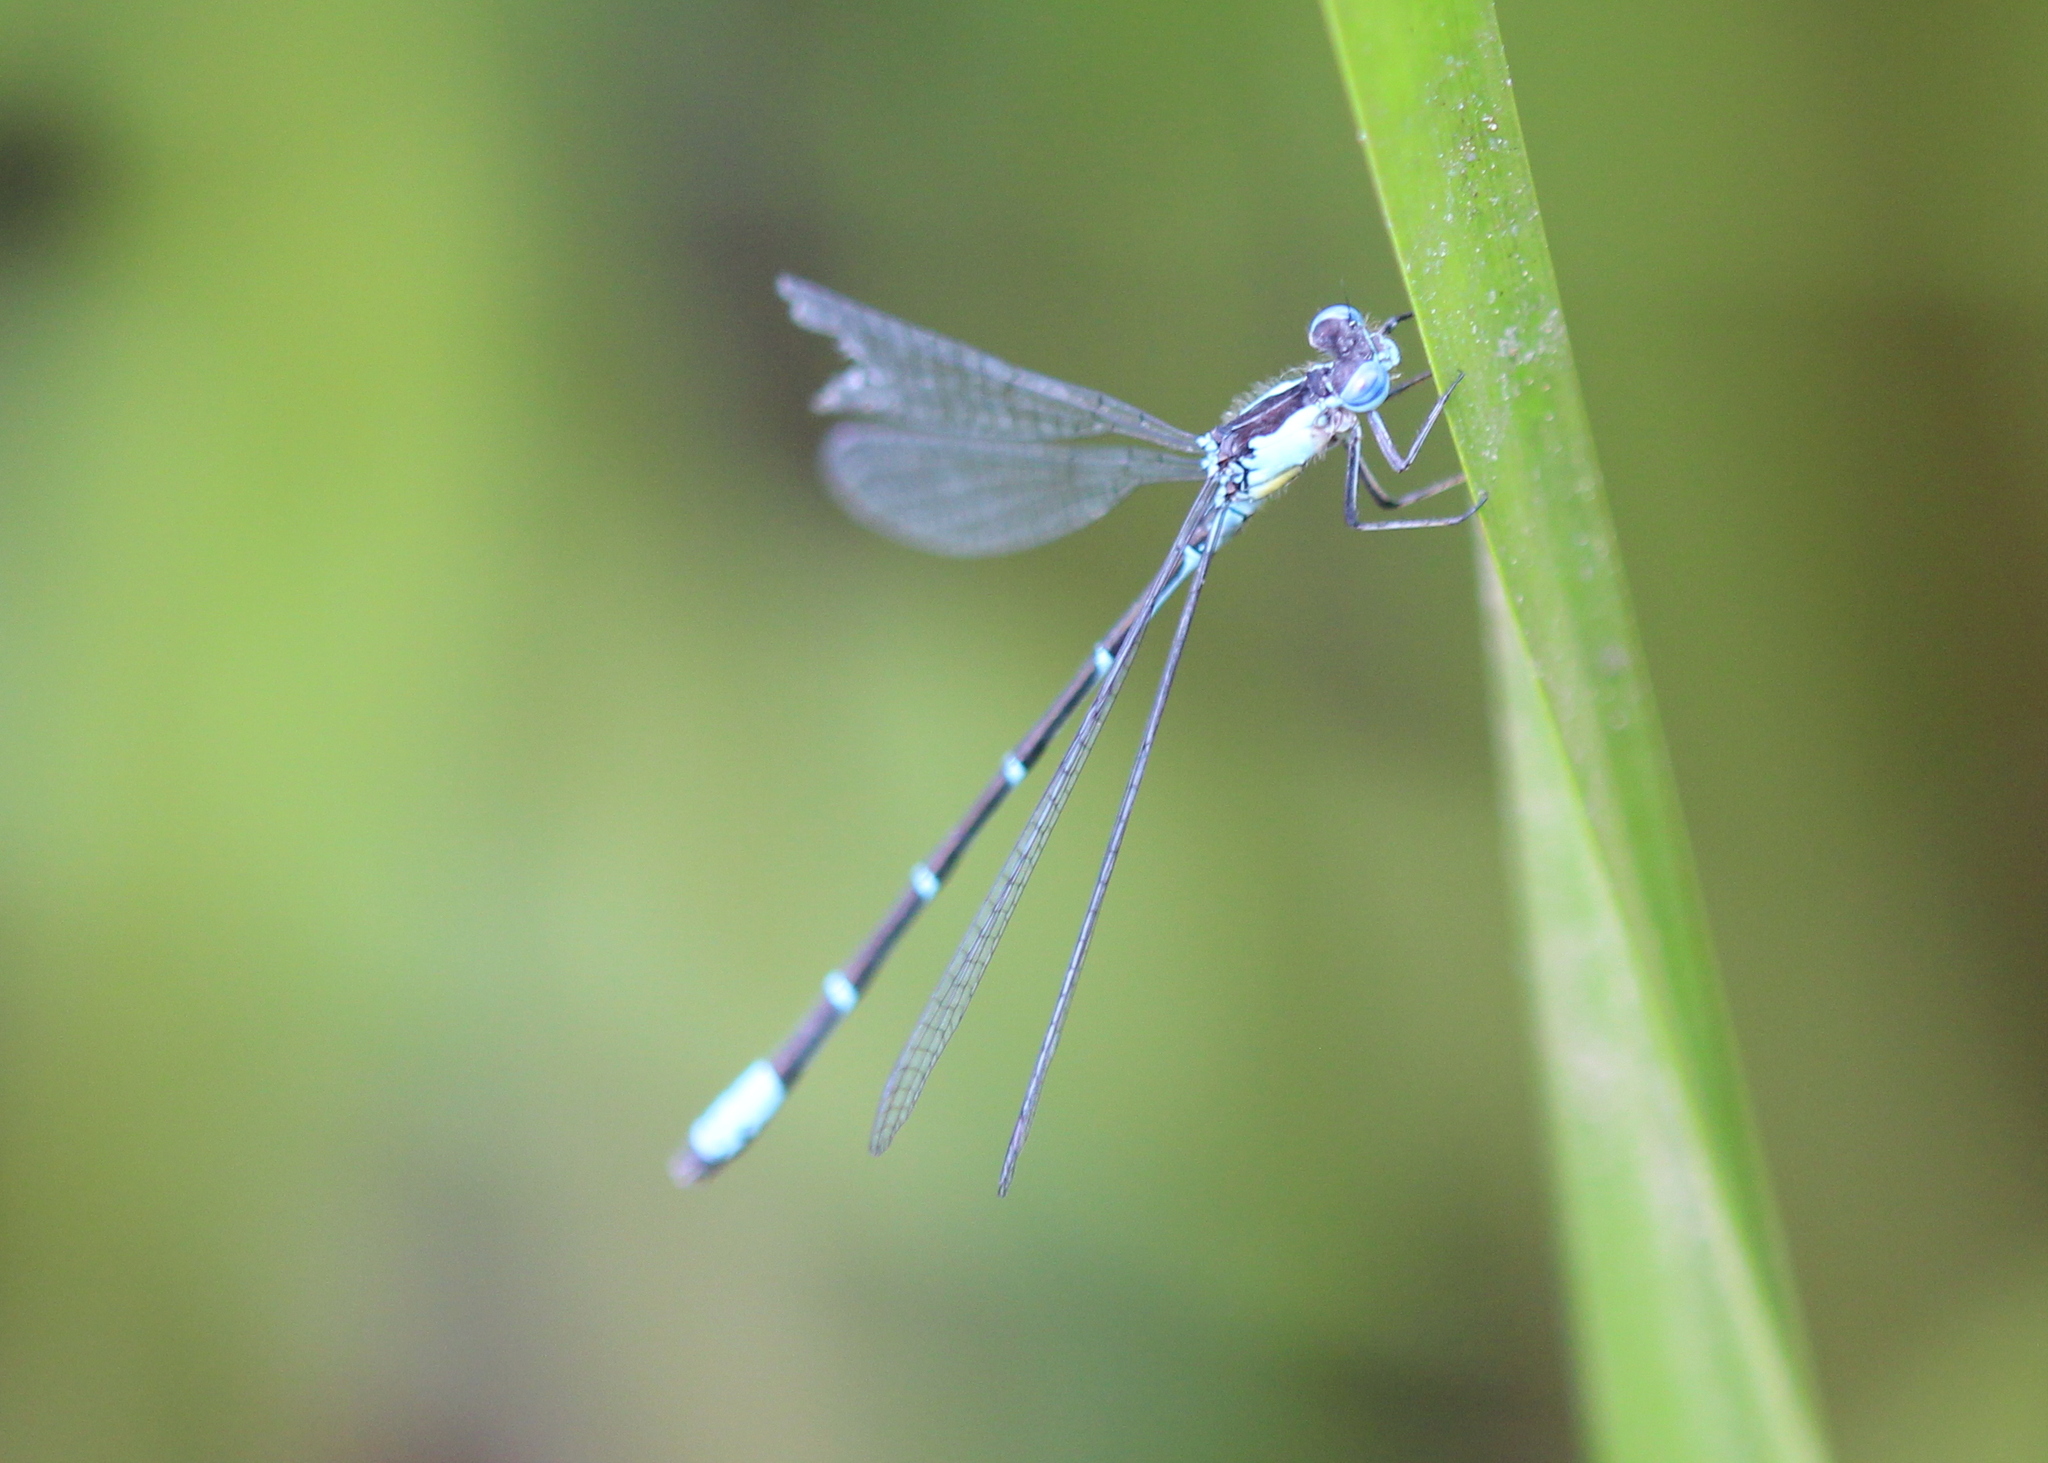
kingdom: Animalia
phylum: Arthropoda
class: Insecta
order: Odonata
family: Coenagrionidae
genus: Chromagrion
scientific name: Chromagrion conditum
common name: Aurora damsel
